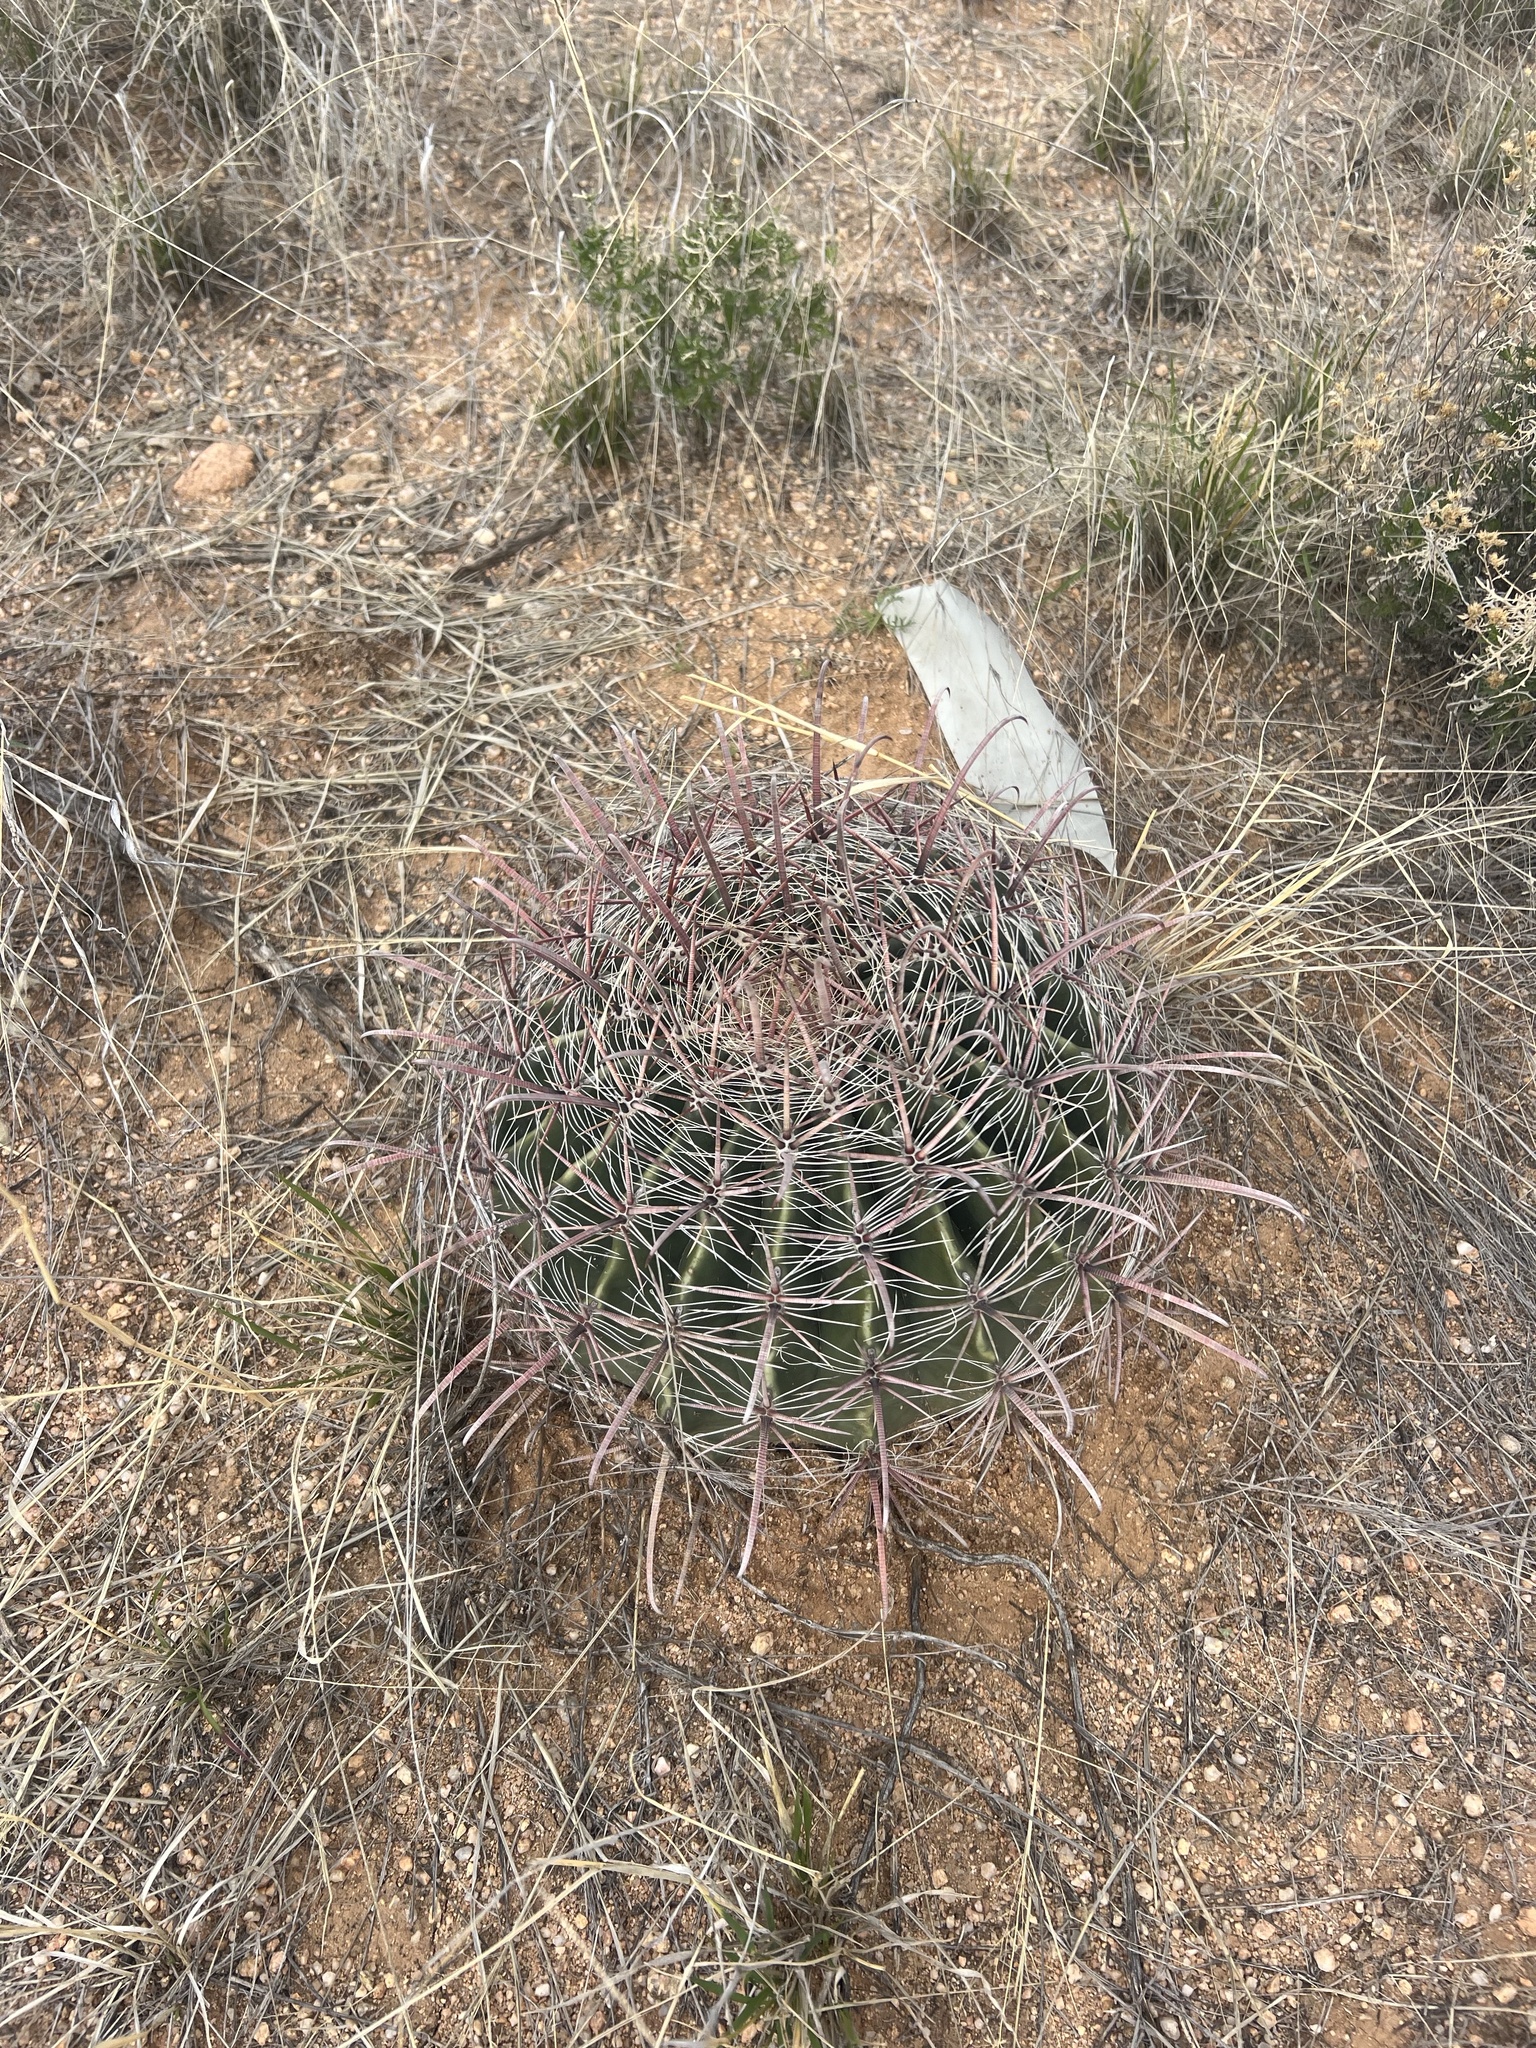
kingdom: Plantae
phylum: Tracheophyta
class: Magnoliopsida
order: Caryophyllales
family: Cactaceae
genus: Ferocactus
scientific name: Ferocactus wislizeni
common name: Candy barrel cactus
